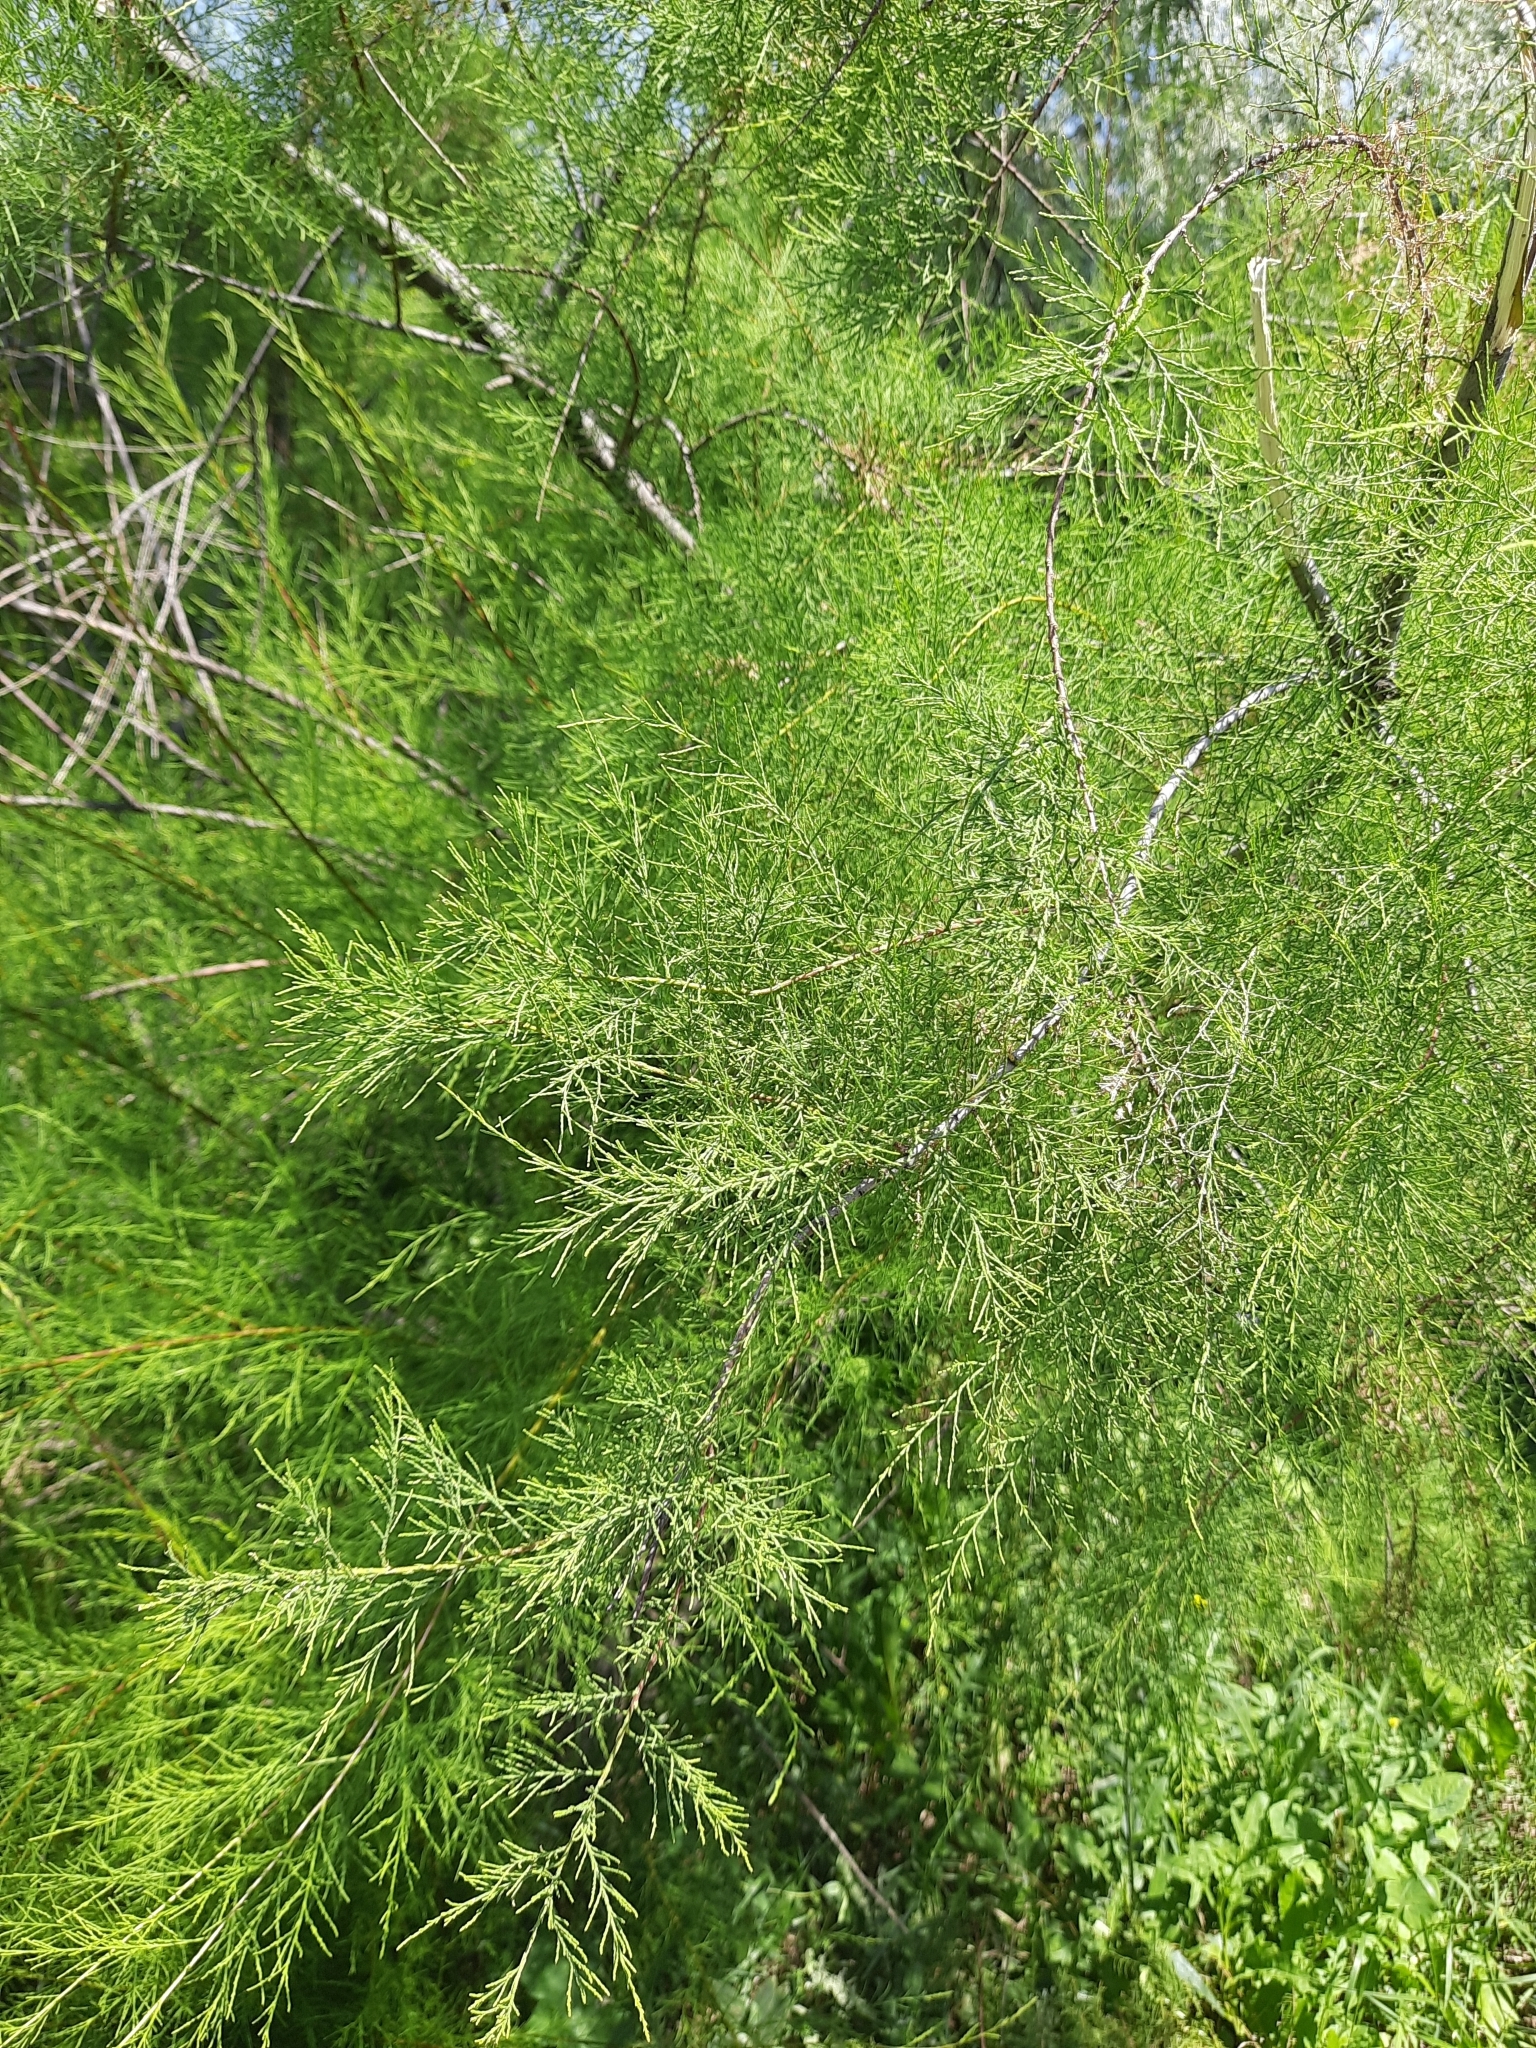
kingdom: Plantae
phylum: Tracheophyta
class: Magnoliopsida
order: Caryophyllales
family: Tamaricaceae
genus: Tamarix
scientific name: Tamarix ramosissima
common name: Pink tamarisk
